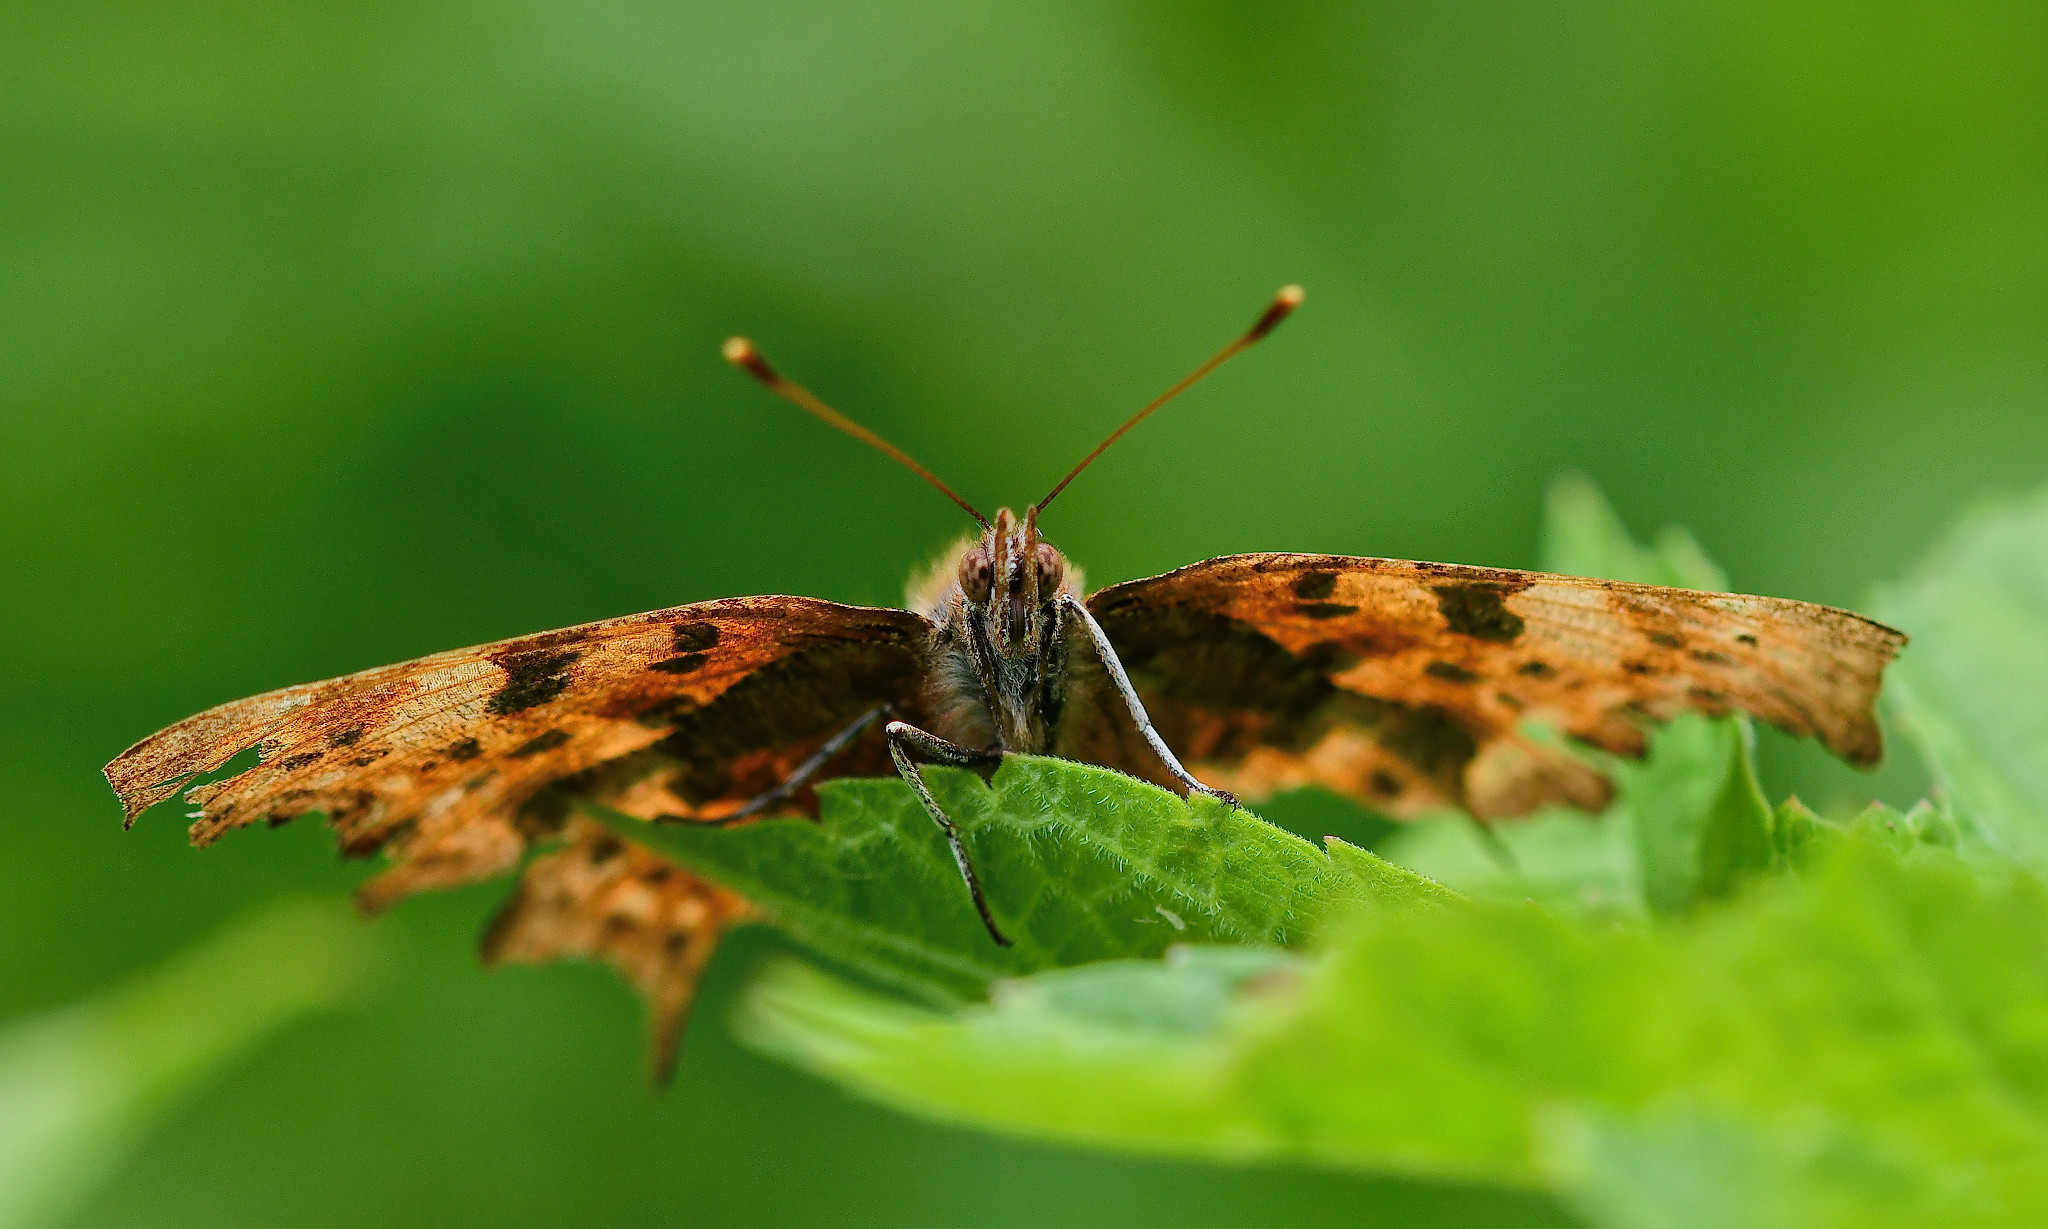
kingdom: Animalia
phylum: Arthropoda
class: Insecta
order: Lepidoptera
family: Nymphalidae
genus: Polygonia
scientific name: Polygonia c-album
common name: Comma
